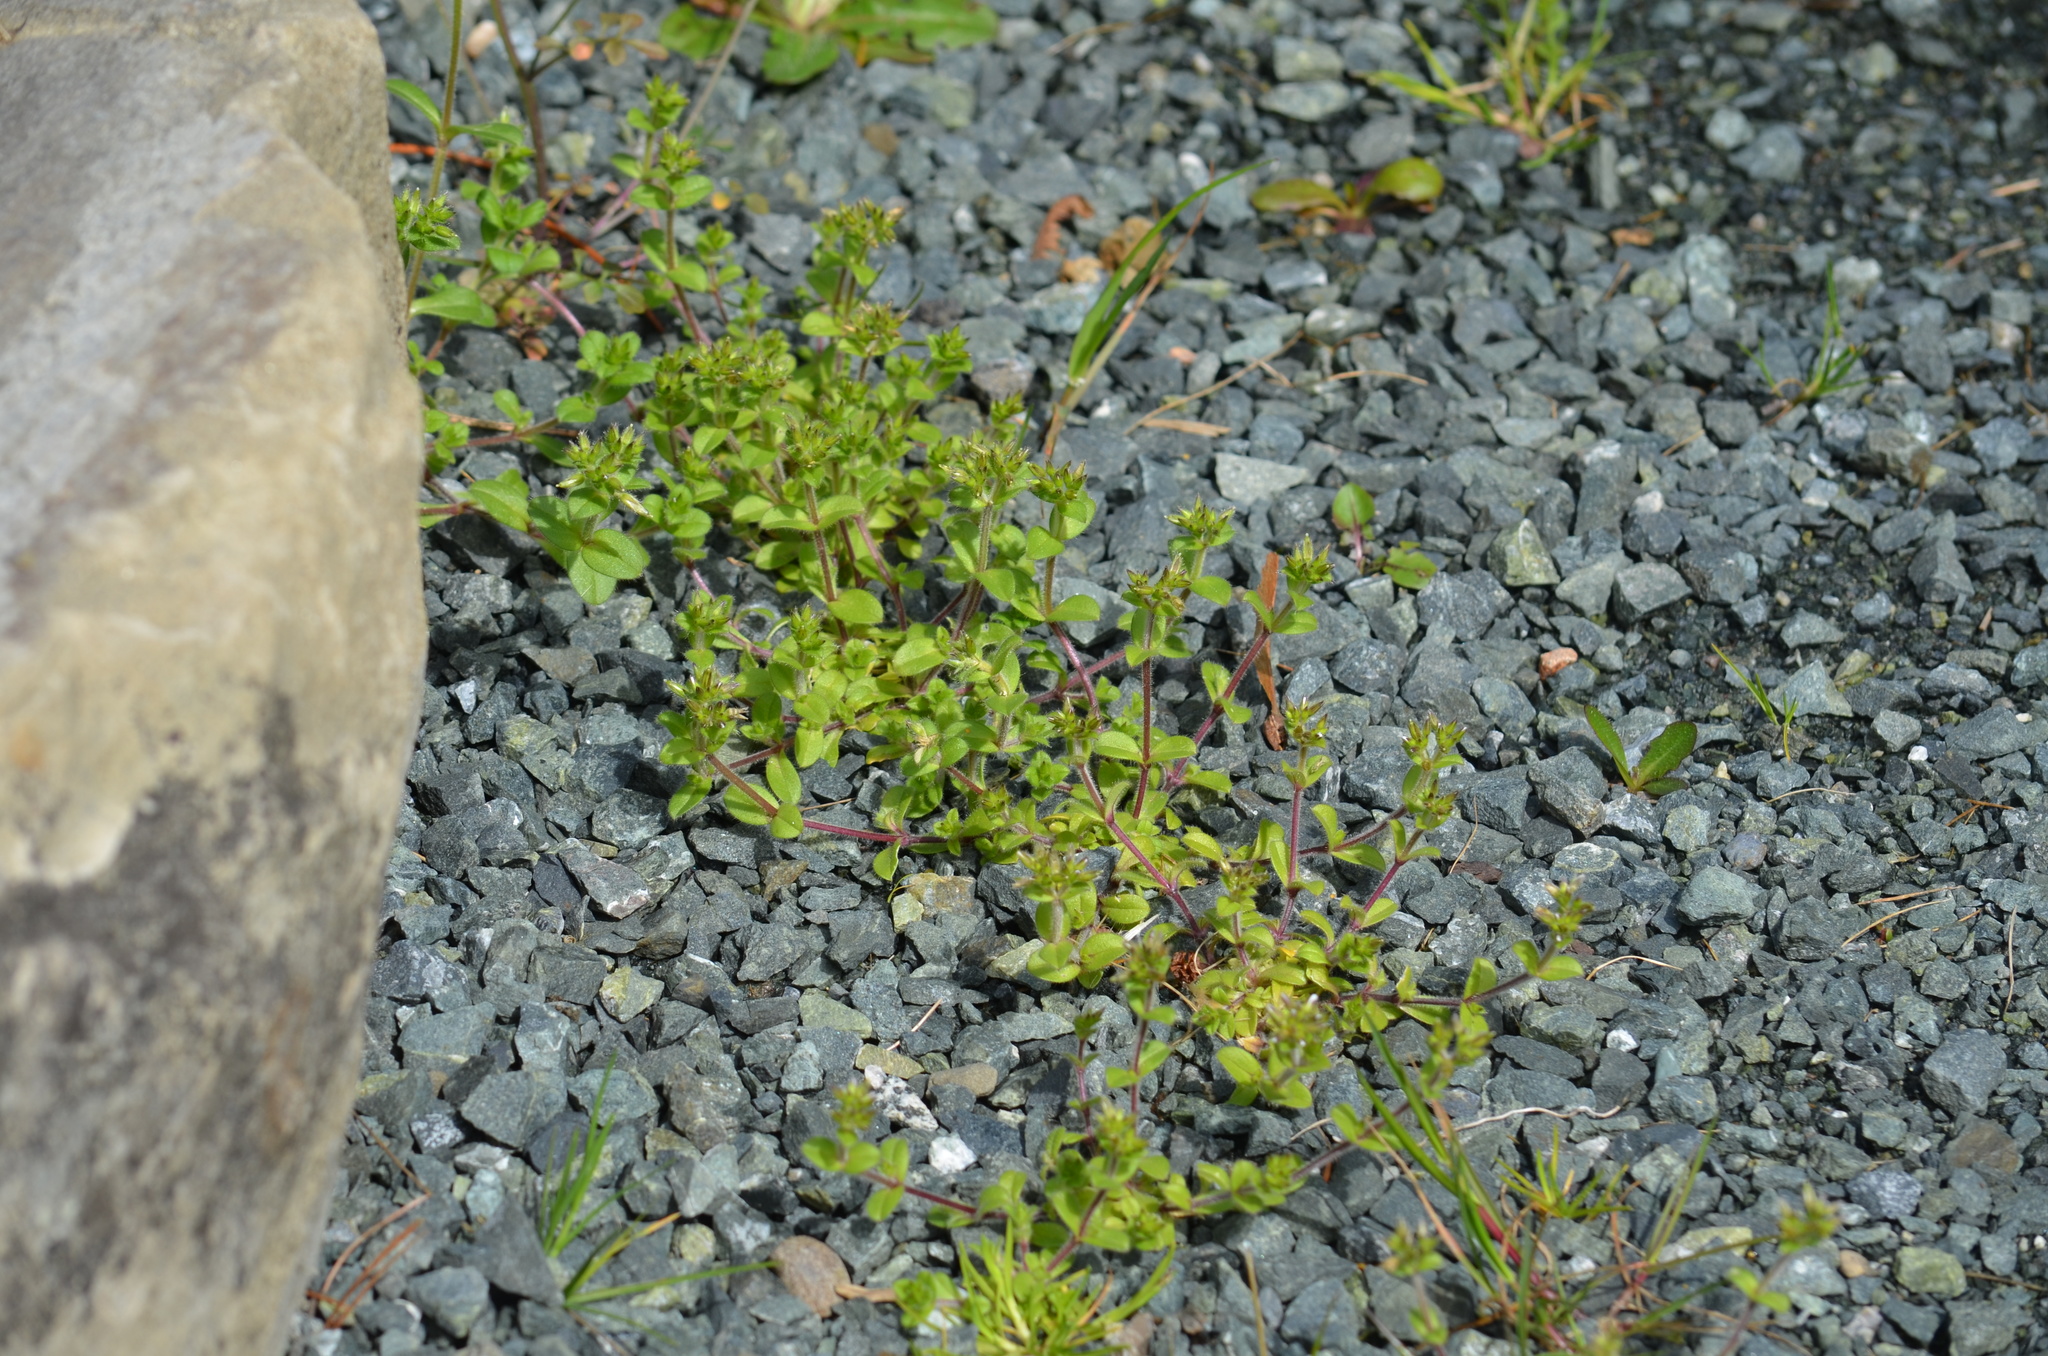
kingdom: Plantae
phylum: Tracheophyta
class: Magnoliopsida
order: Caryophyllales
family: Caryophyllaceae
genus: Cerastium
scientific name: Cerastium glomeratum
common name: Sticky chickweed
